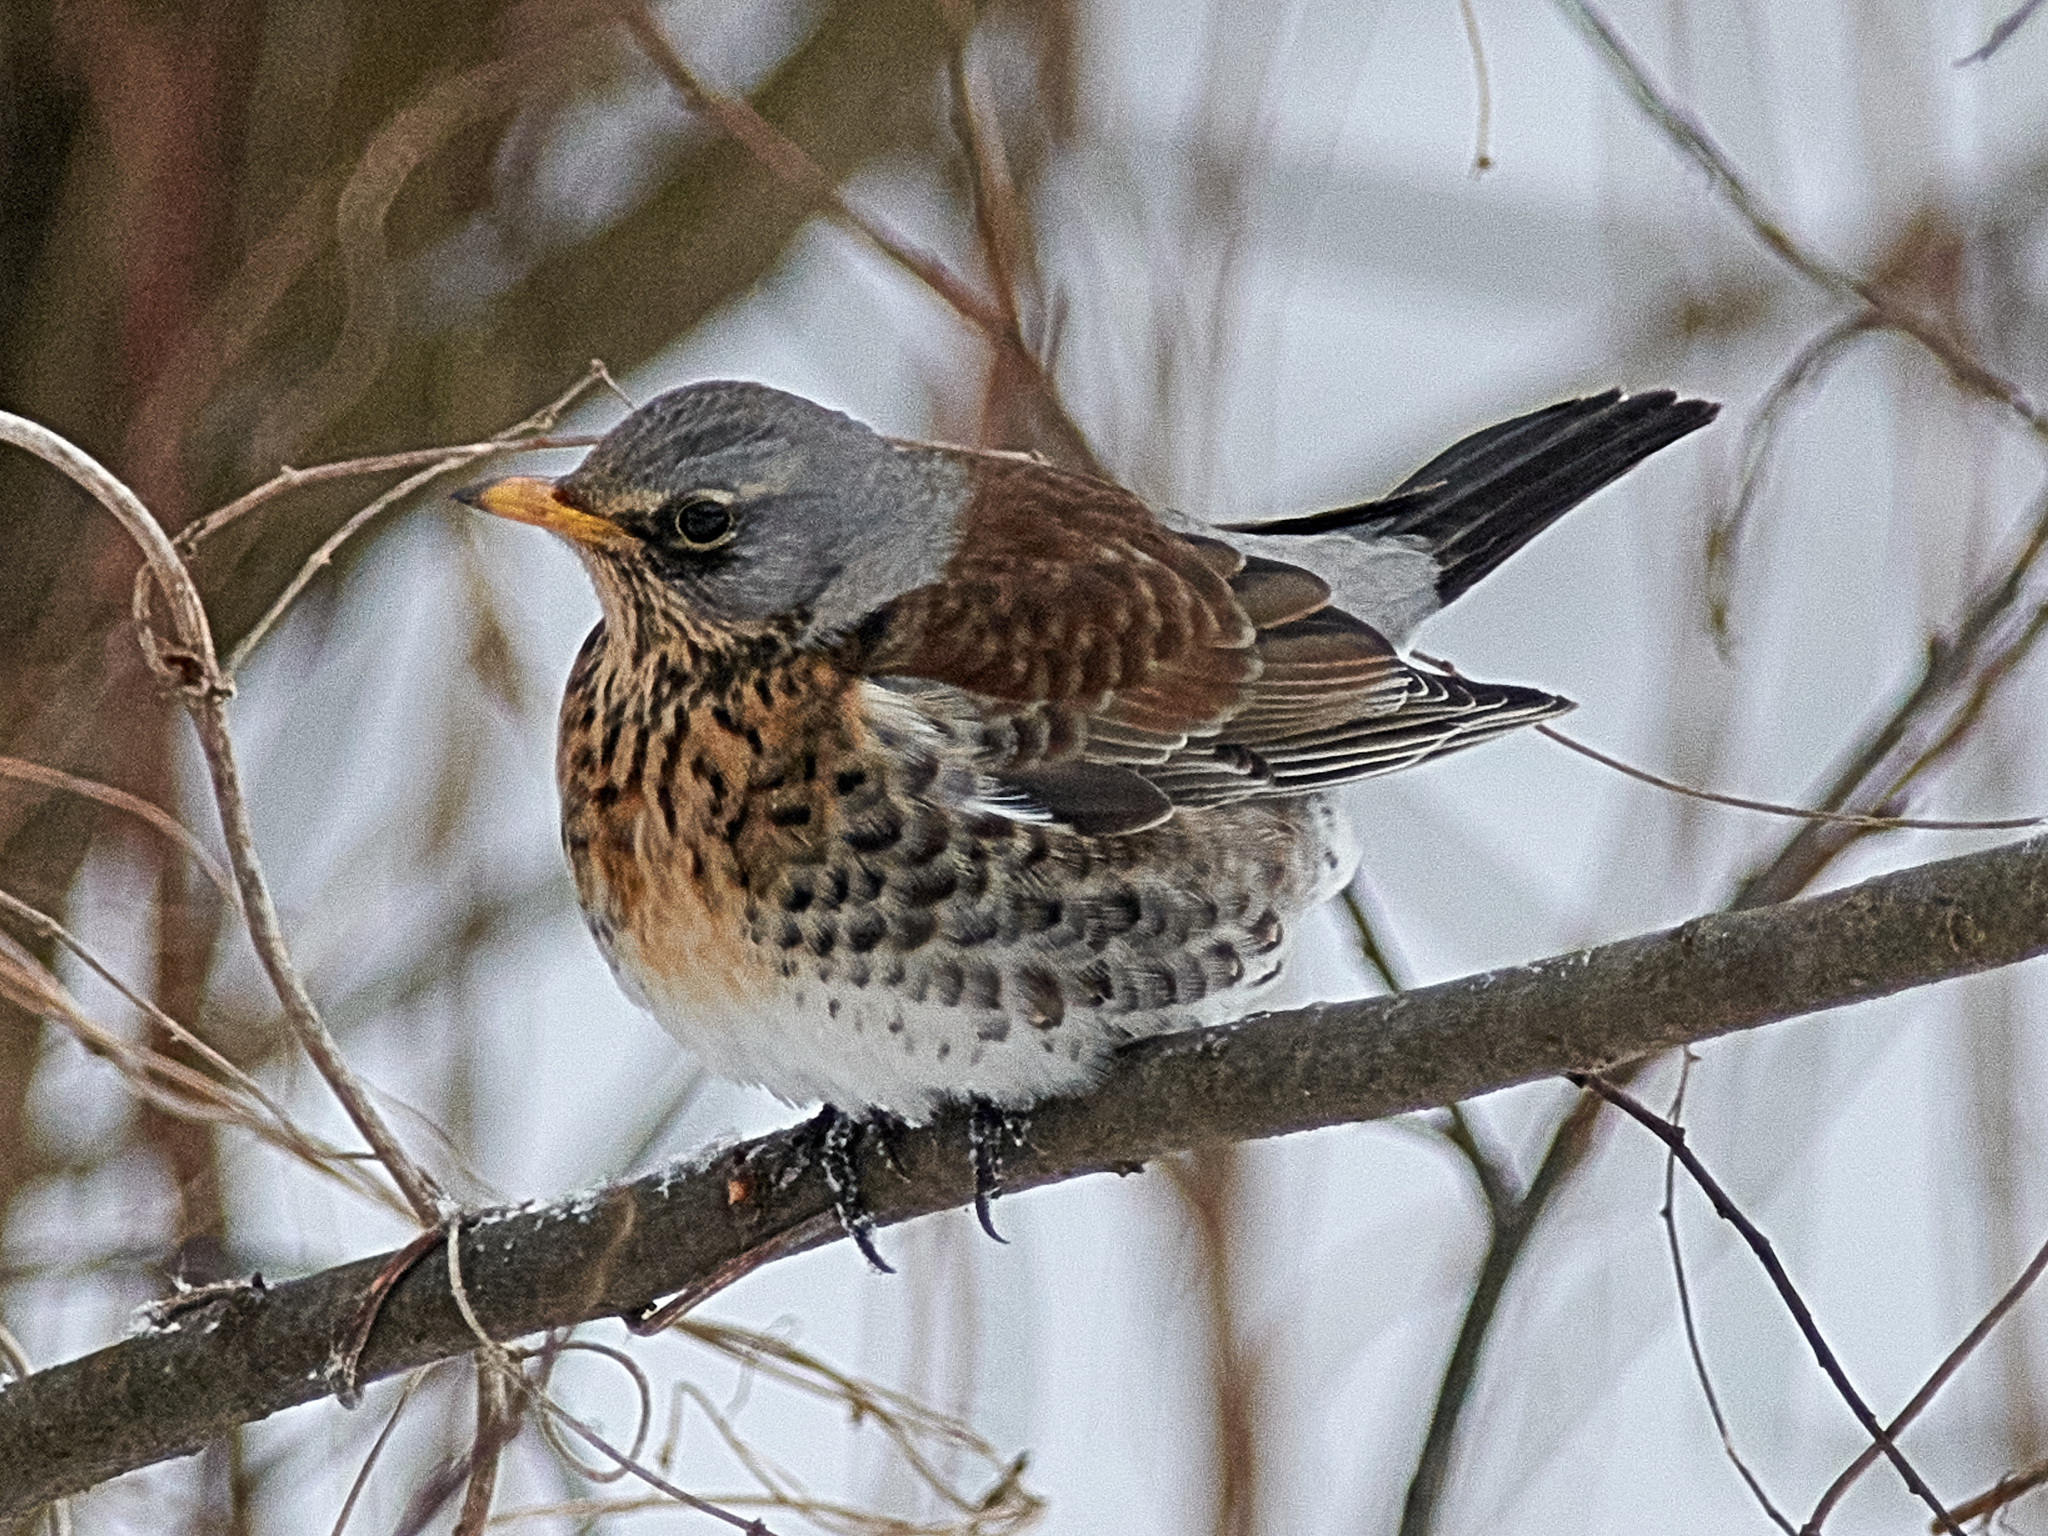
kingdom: Animalia
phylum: Chordata
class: Aves
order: Passeriformes
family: Turdidae
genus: Turdus
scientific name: Turdus pilaris
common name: Fieldfare
